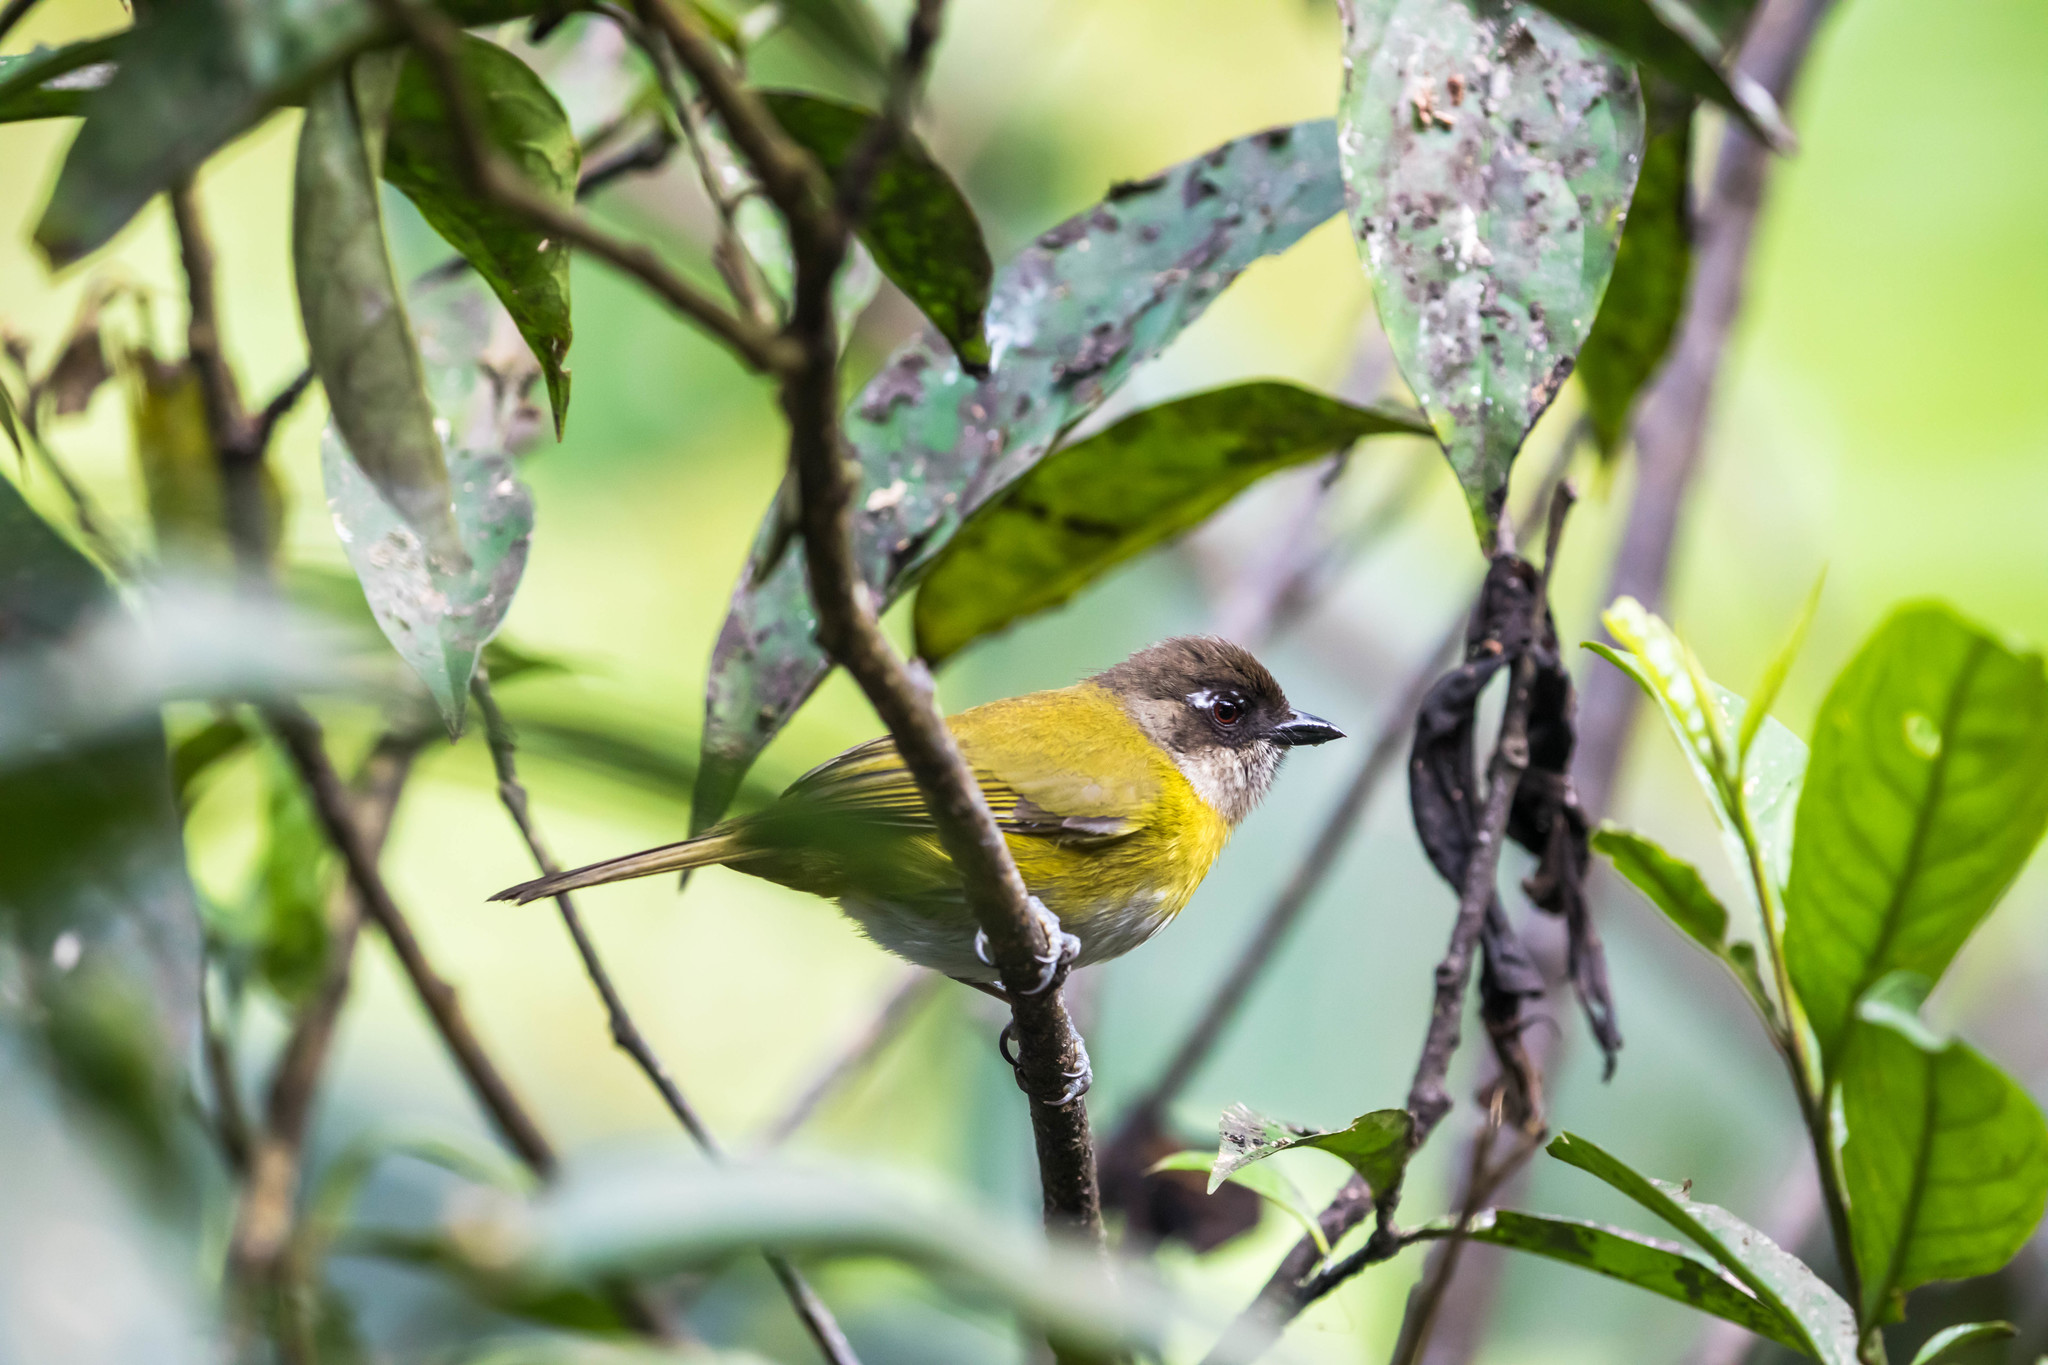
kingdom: Animalia
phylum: Chordata
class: Aves
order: Passeriformes
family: Passerellidae
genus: Chlorospingus
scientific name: Chlorospingus flavopectus
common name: Common chlorospingus
